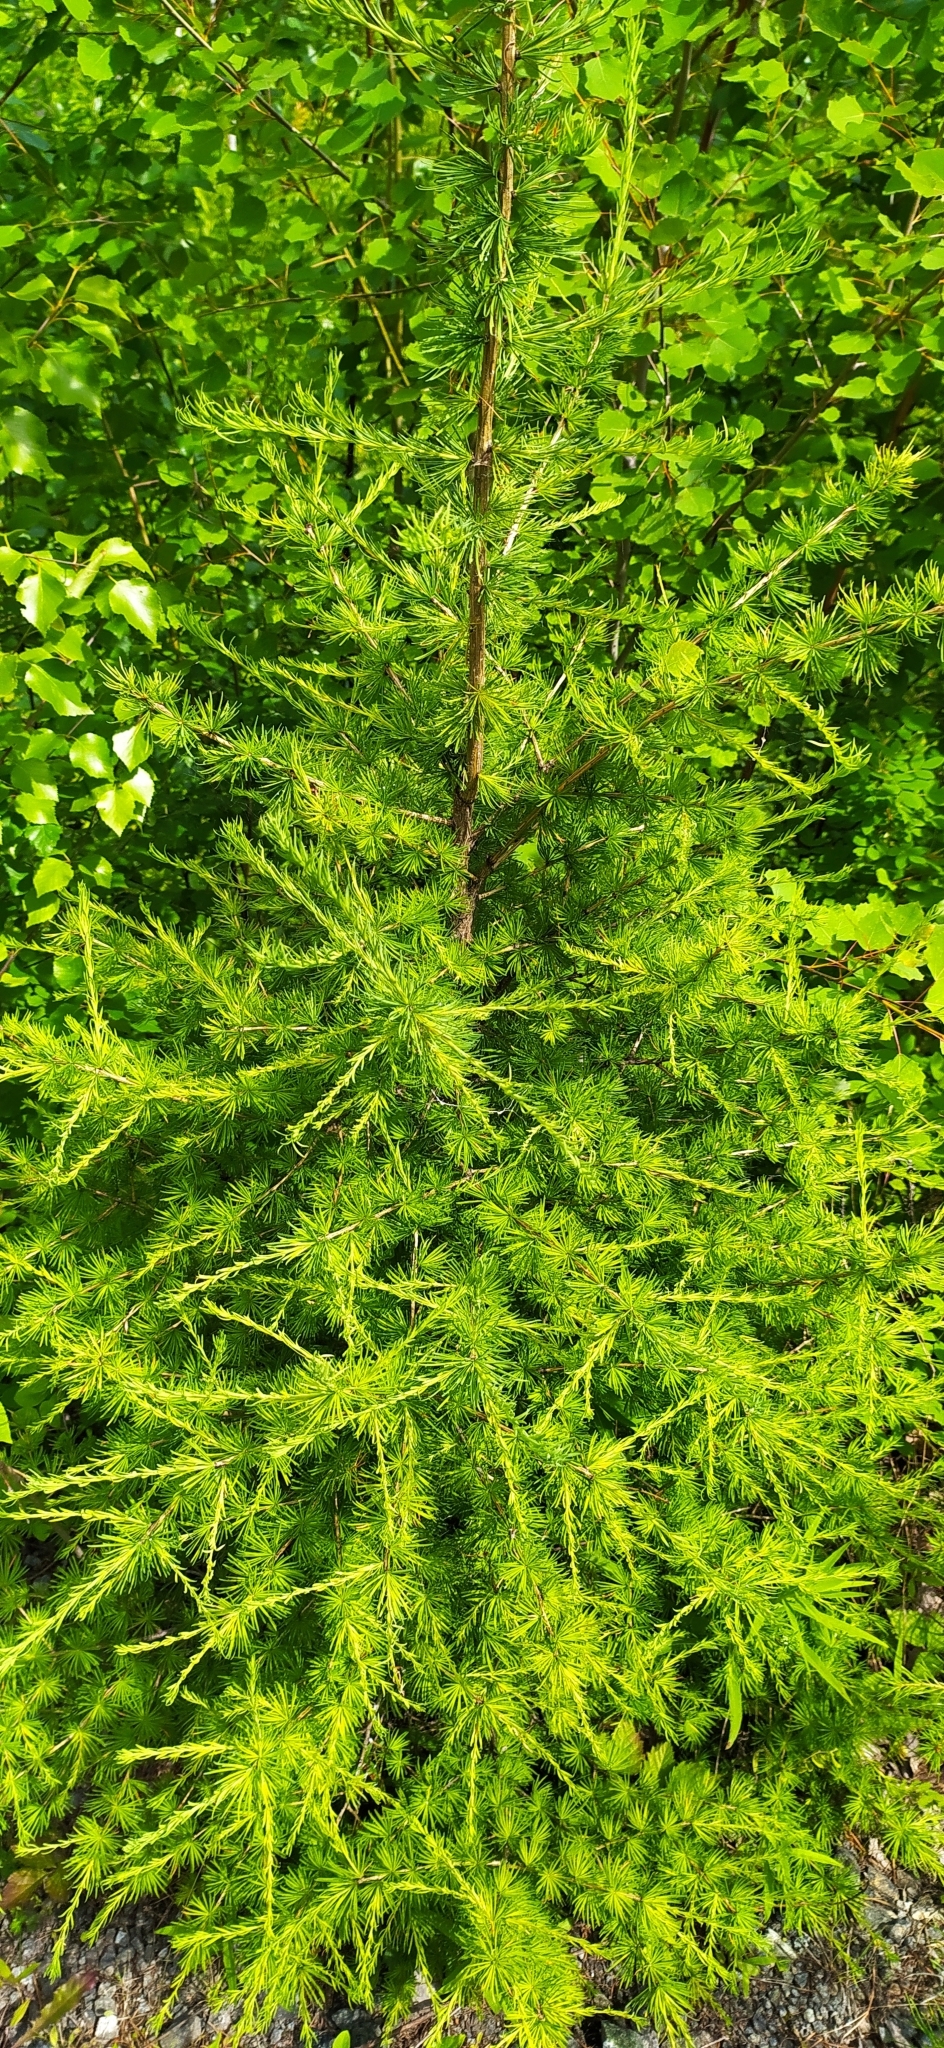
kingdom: Plantae
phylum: Tracheophyta
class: Pinopsida
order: Pinales
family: Pinaceae
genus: Larix
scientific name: Larix sibirica
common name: Siberian larch
